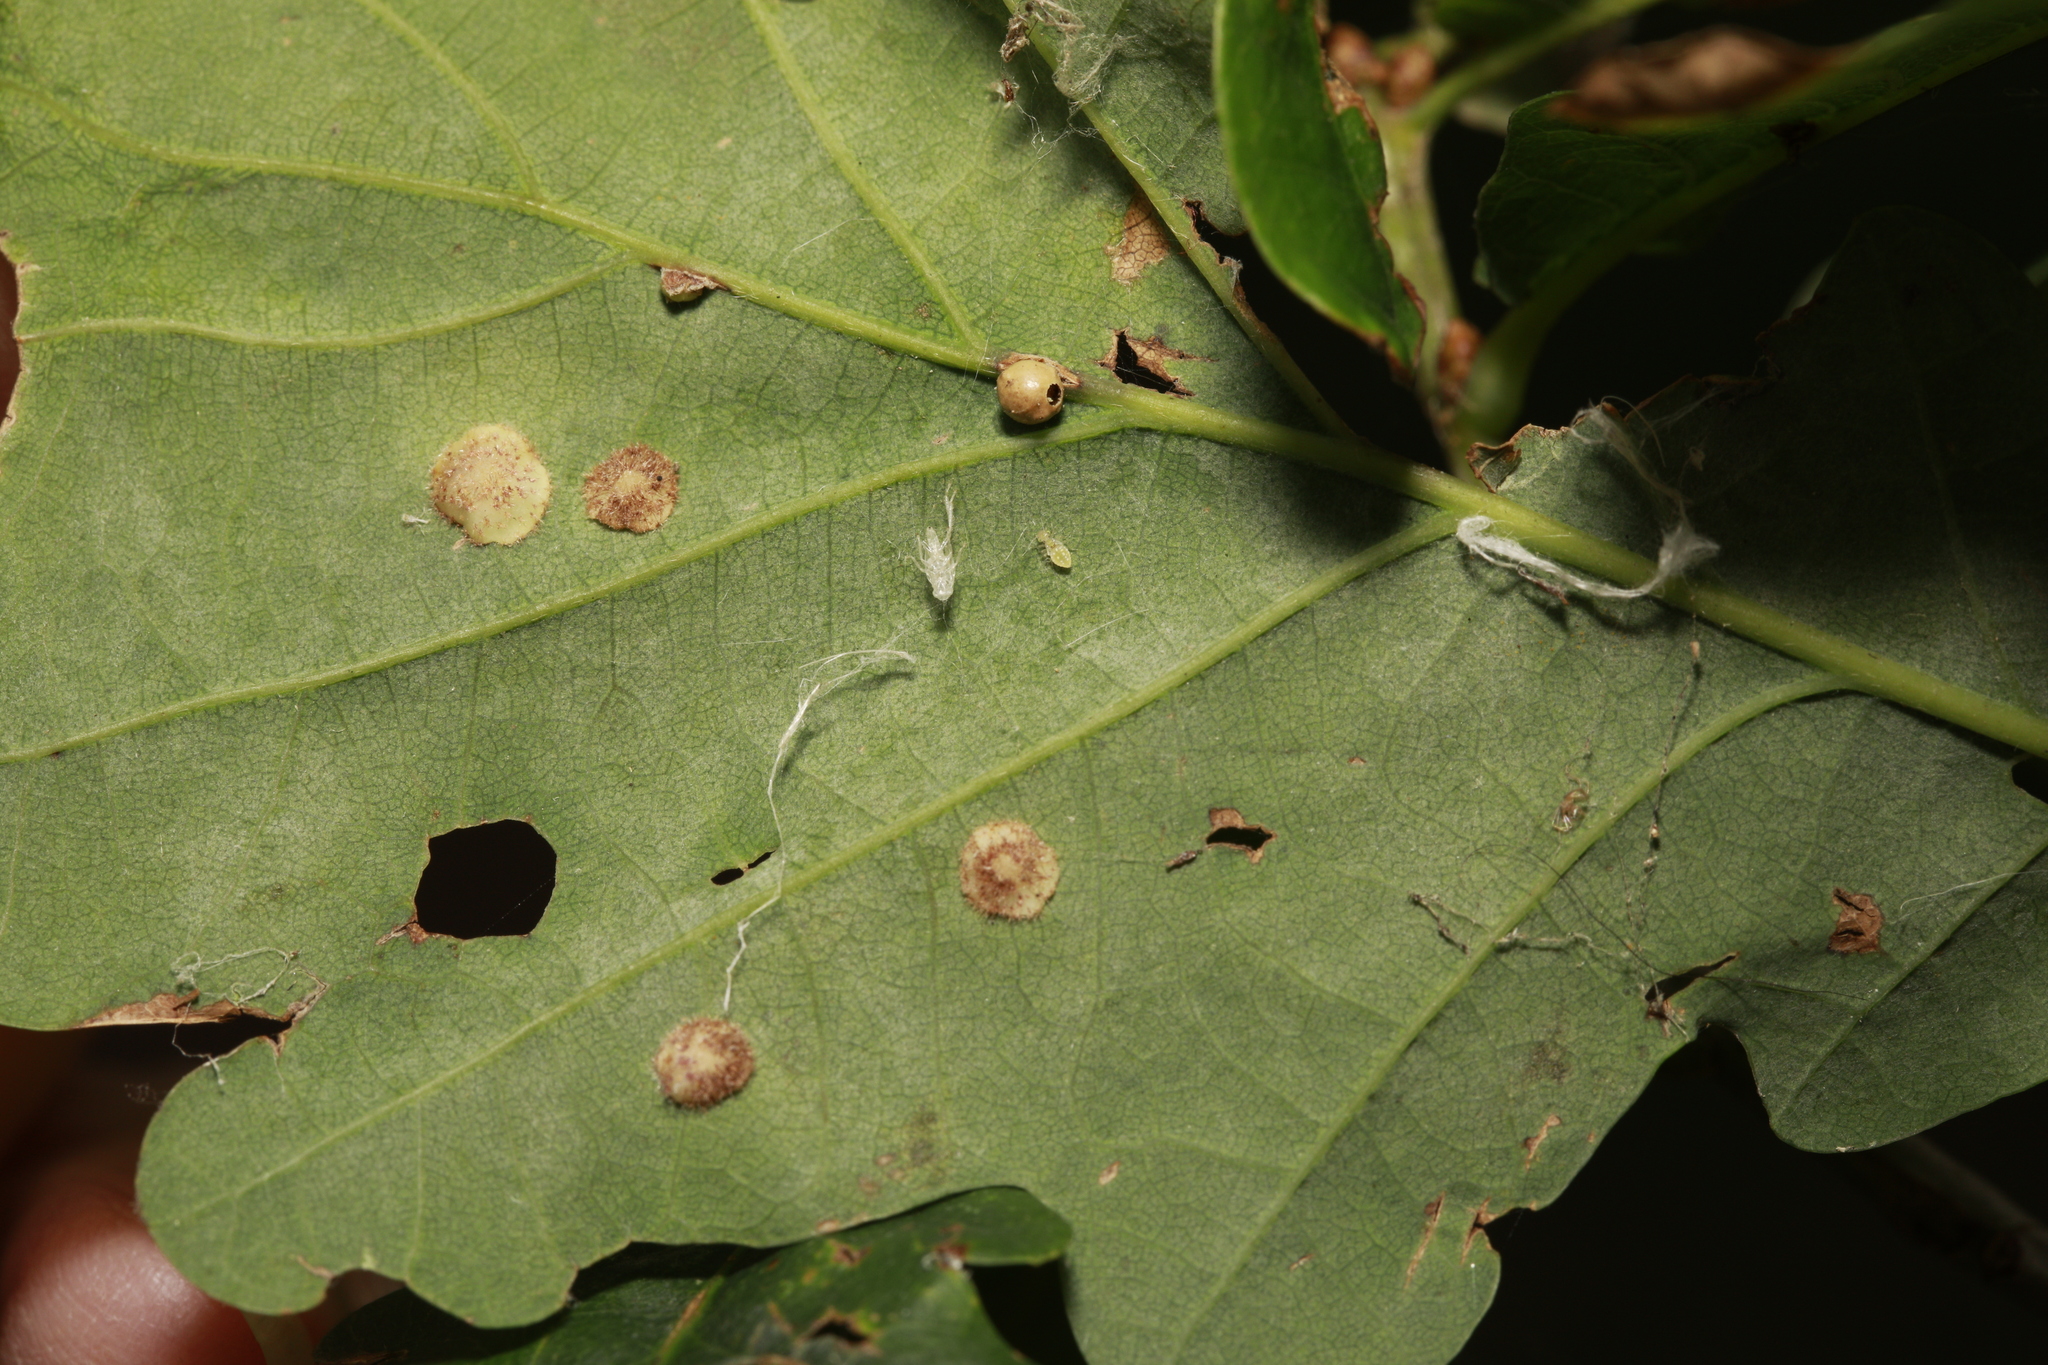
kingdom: Animalia
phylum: Arthropoda
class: Insecta
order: Hymenoptera
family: Cynipidae
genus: Neuroterus
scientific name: Neuroterus quercusbaccarum
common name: Common spangle gall
